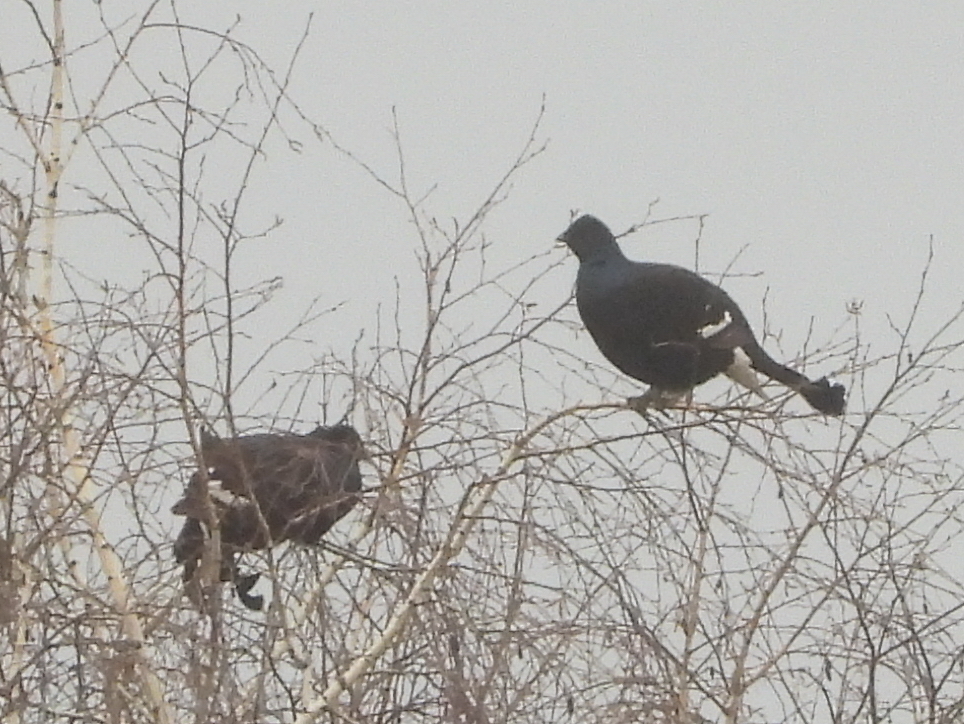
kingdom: Animalia
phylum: Chordata
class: Aves
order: Galliformes
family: Phasianidae
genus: Lyrurus
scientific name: Lyrurus tetrix
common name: Black grouse
